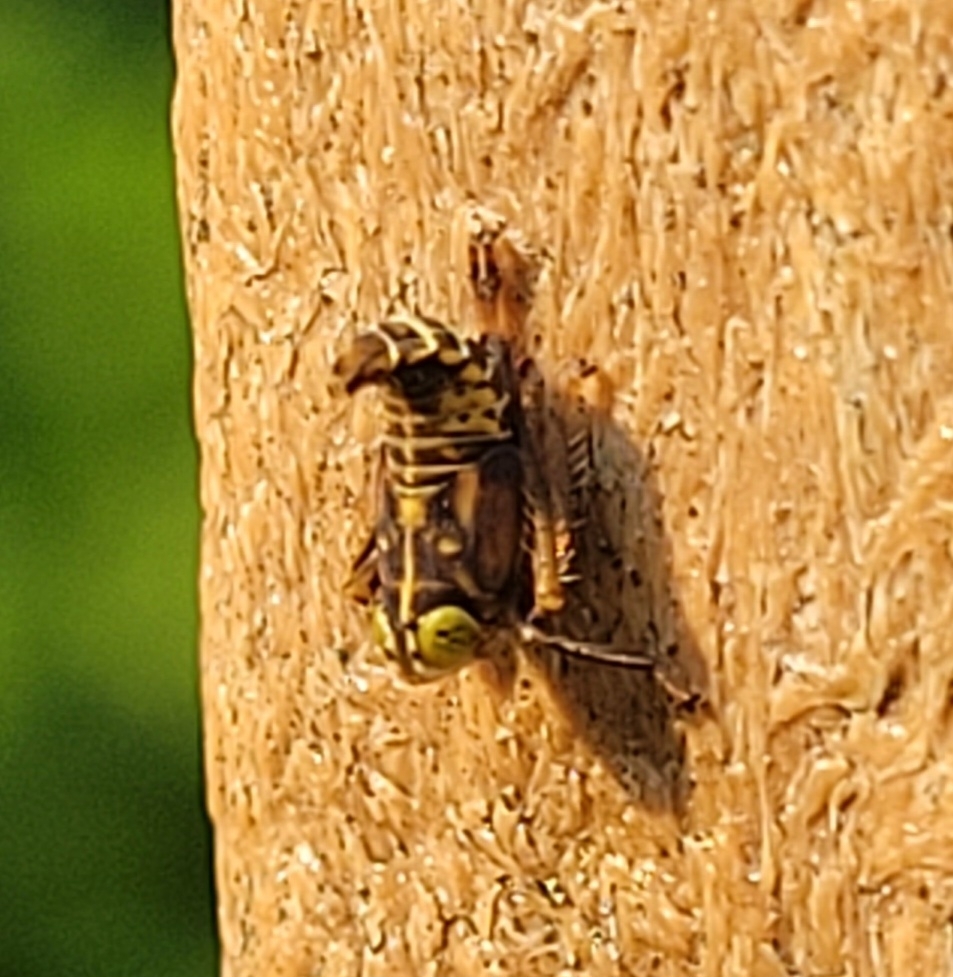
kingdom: Animalia
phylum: Arthropoda
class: Insecta
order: Hemiptera
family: Cicadellidae
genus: Jikradia
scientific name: Jikradia olitoria
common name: Coppery leafhopper
